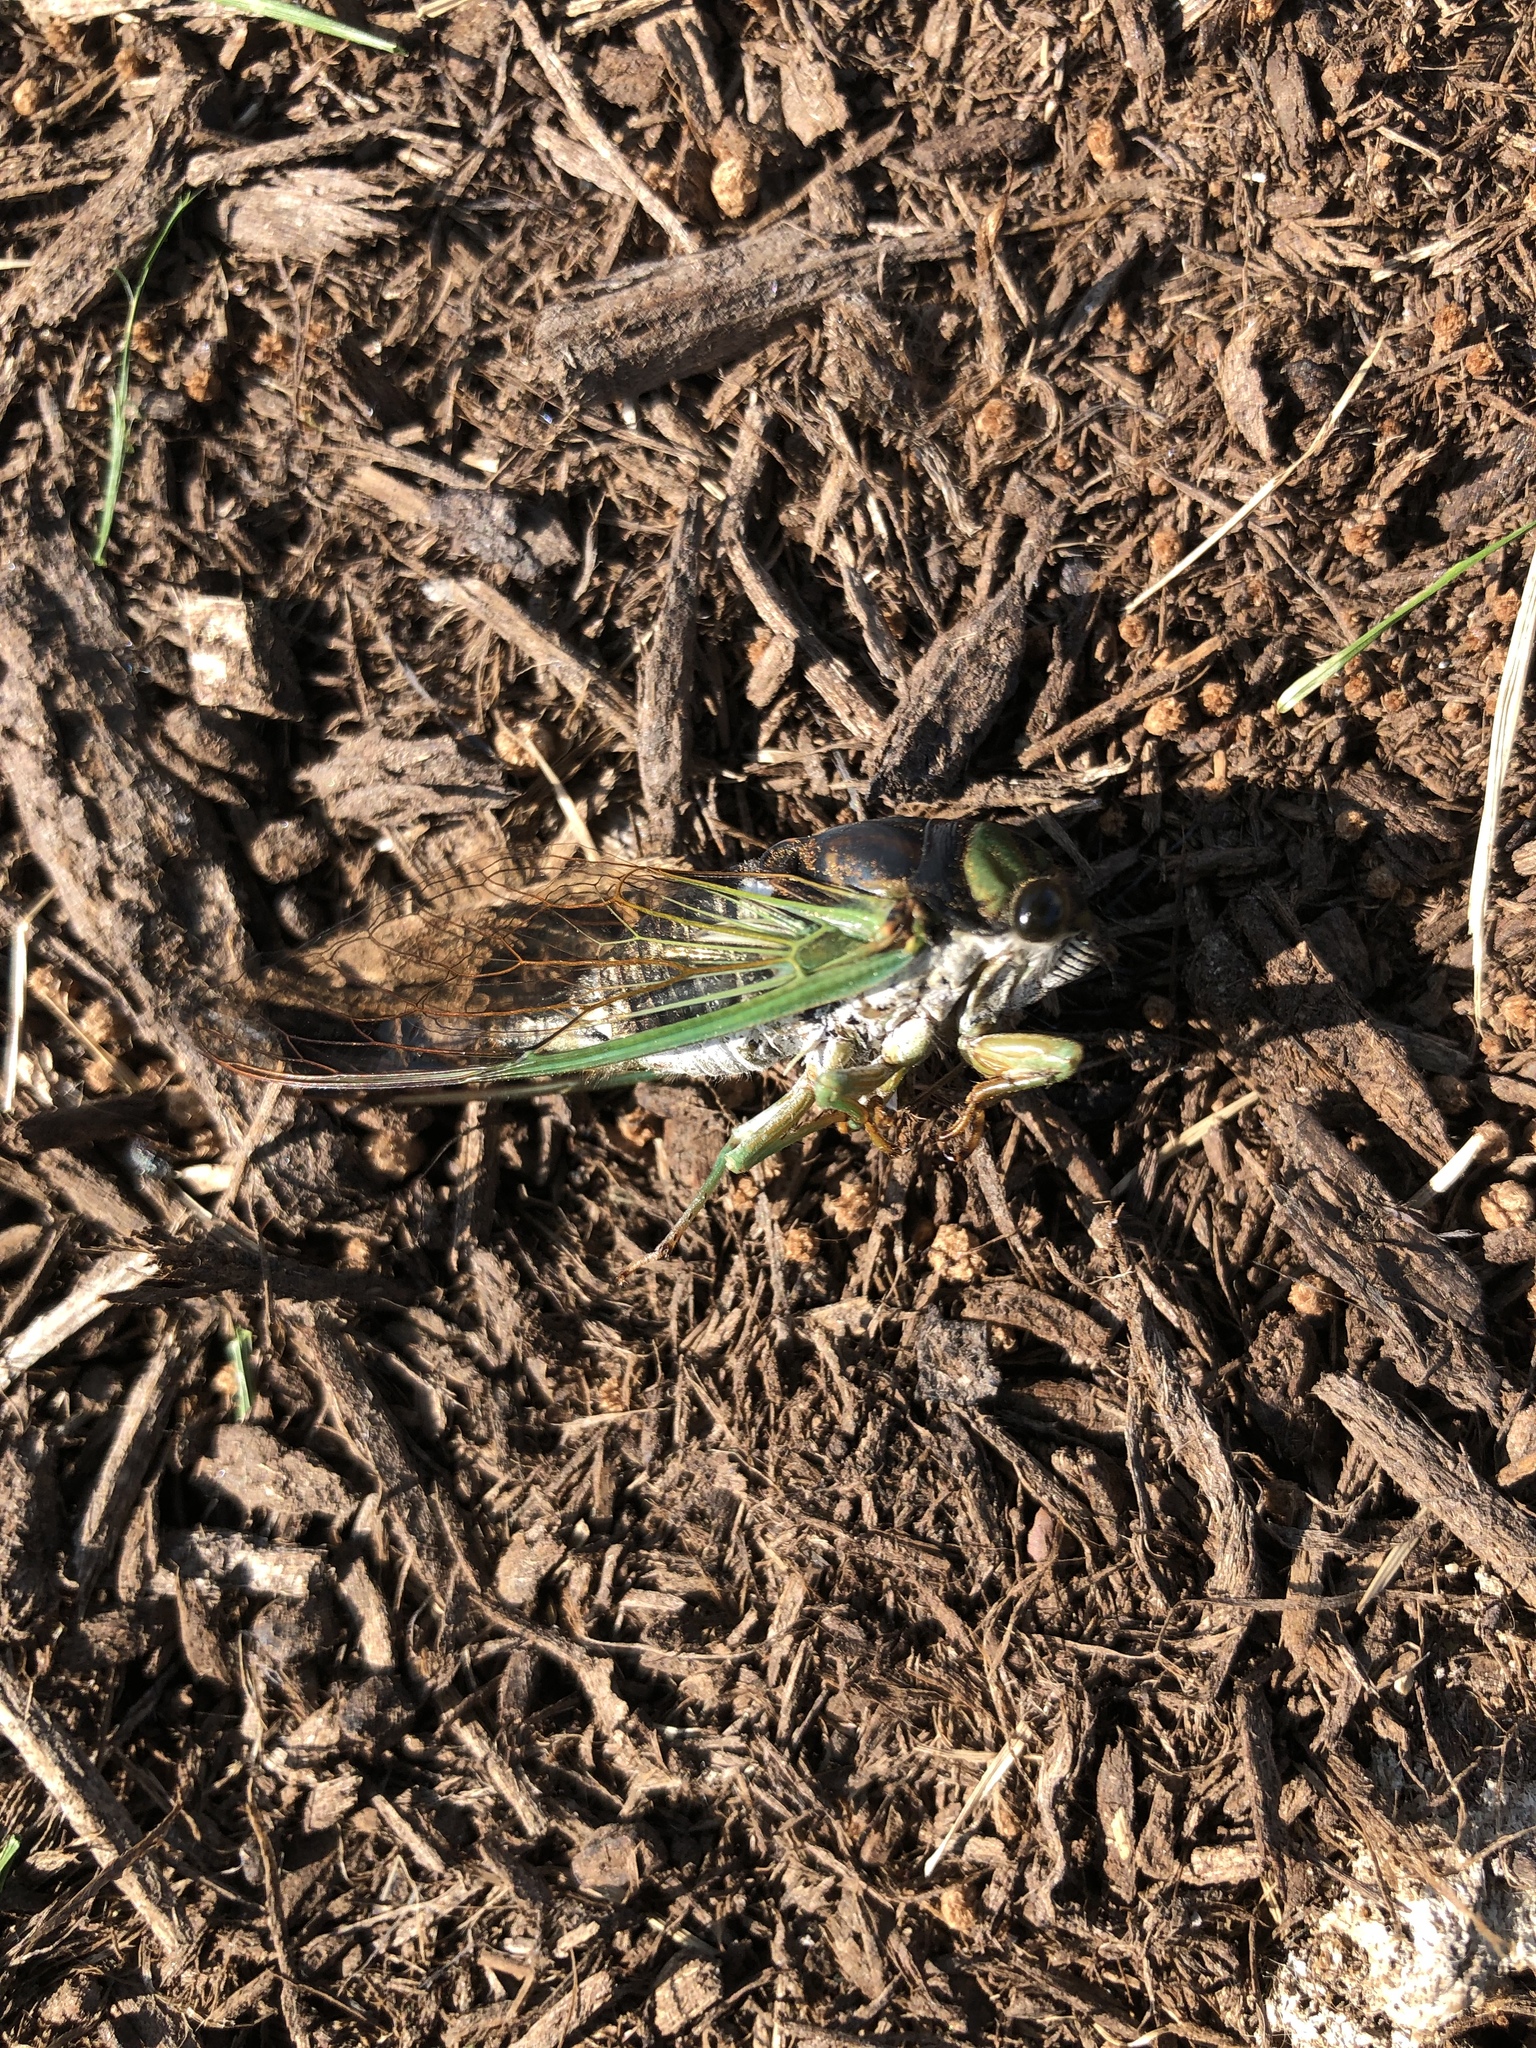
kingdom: Animalia
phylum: Arthropoda
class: Insecta
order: Hemiptera
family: Cicadidae
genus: Neotibicen
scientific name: Neotibicen tibicen
